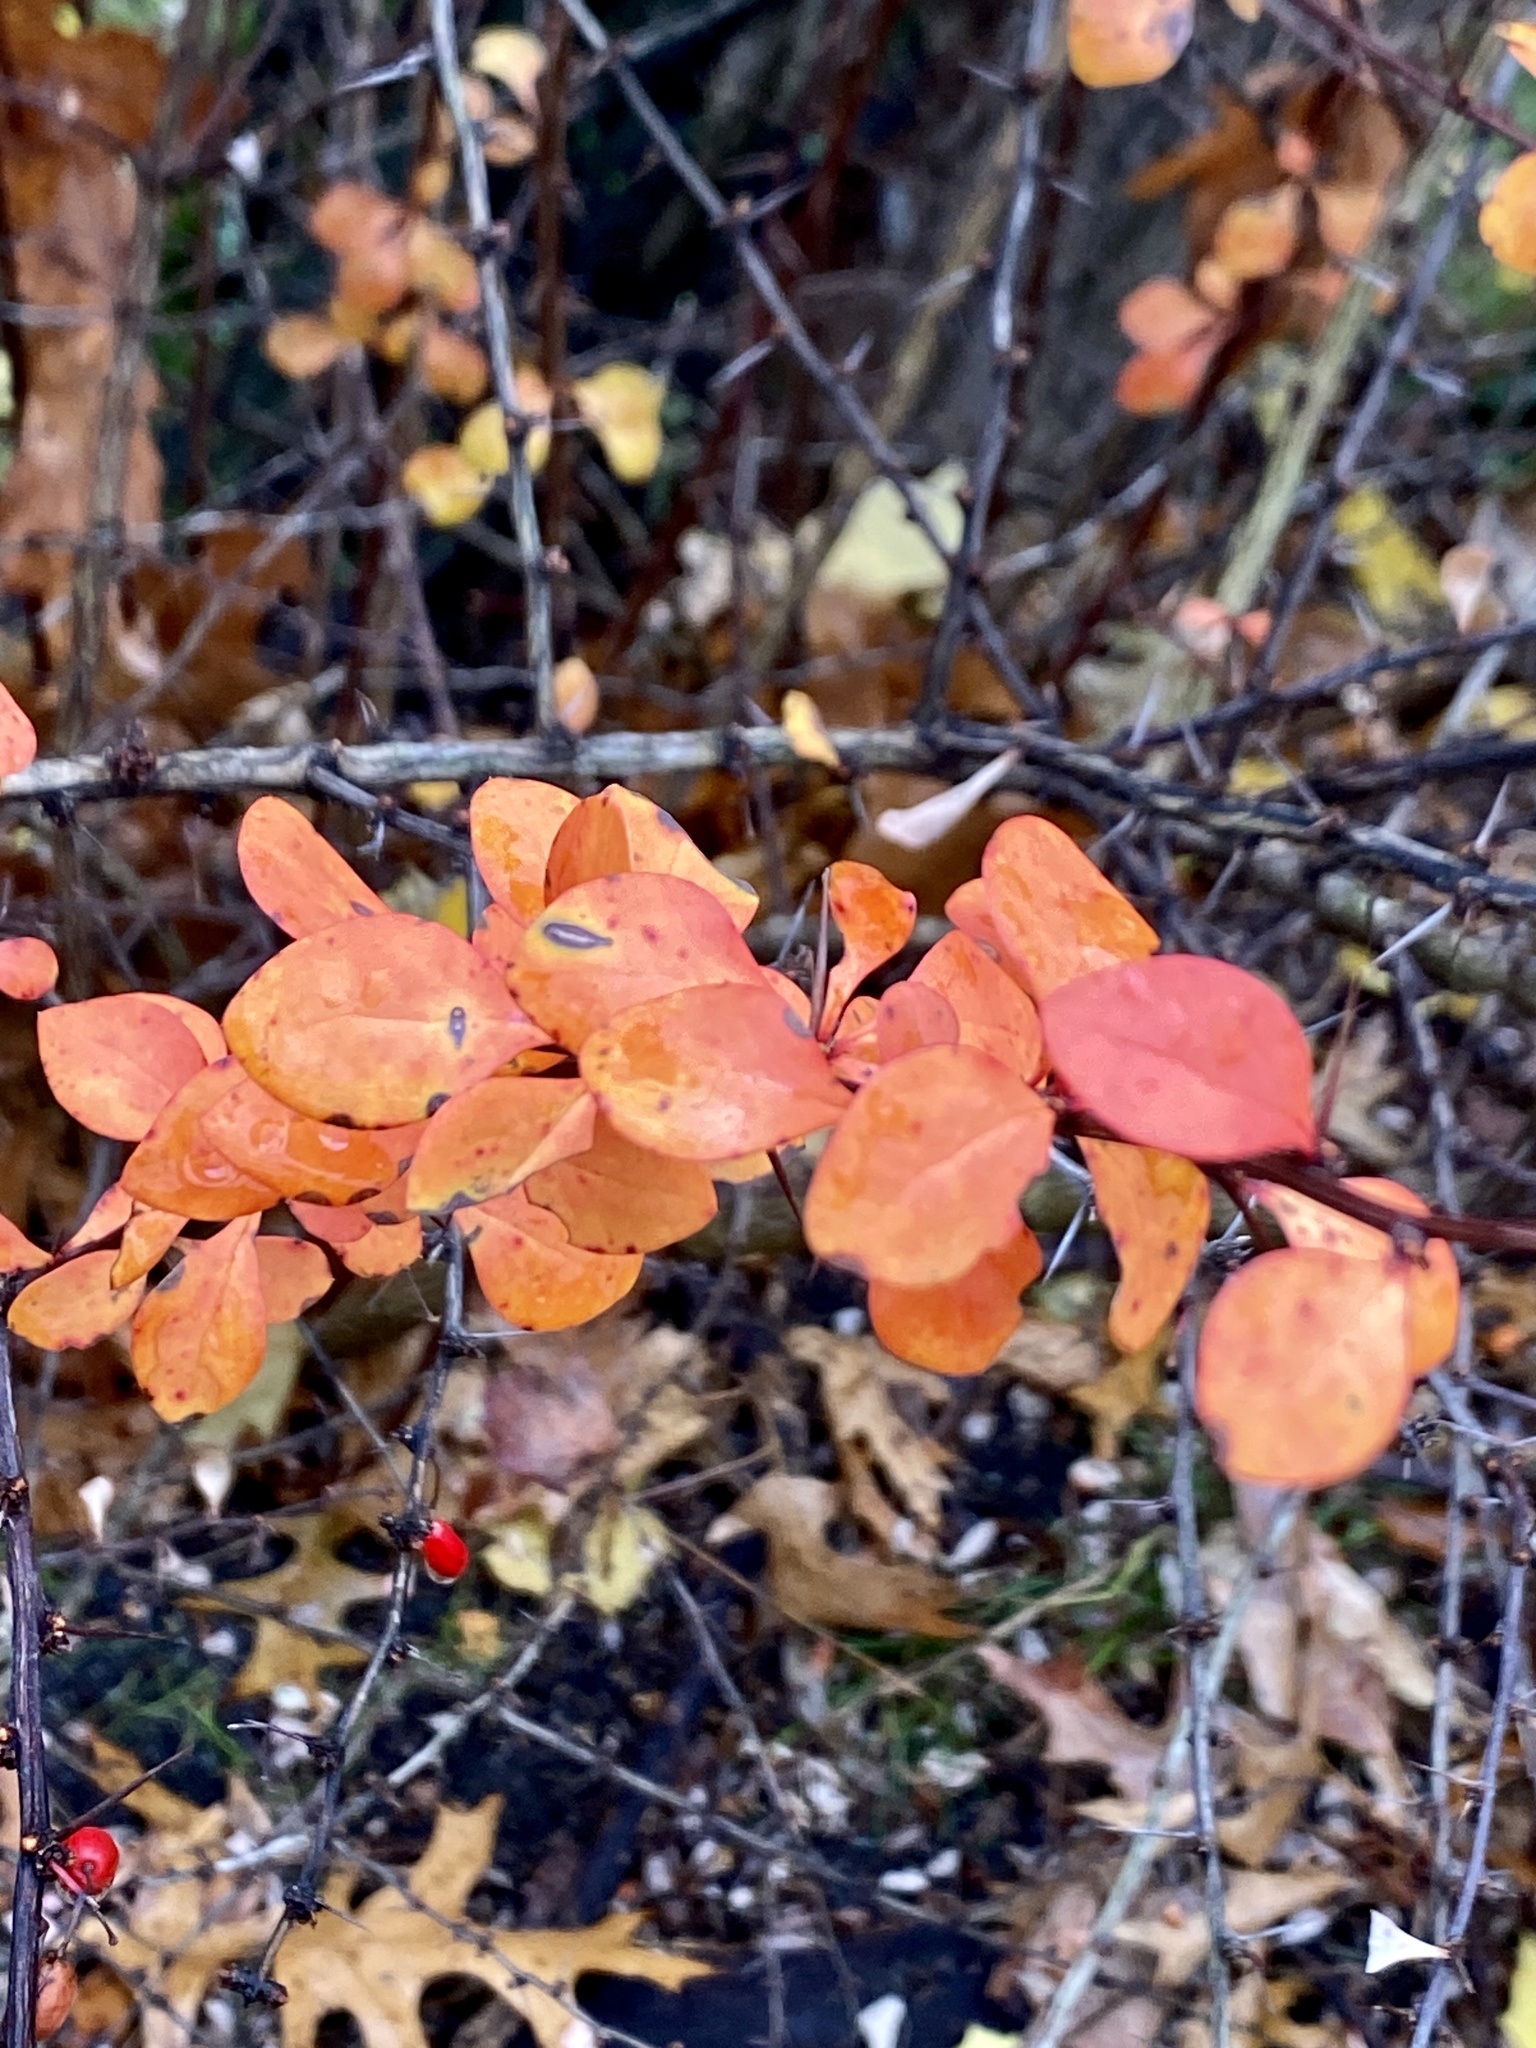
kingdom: Plantae
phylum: Tracheophyta
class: Magnoliopsida
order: Ranunculales
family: Berberidaceae
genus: Berberis
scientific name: Berberis thunbergii
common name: Japanese barberry
